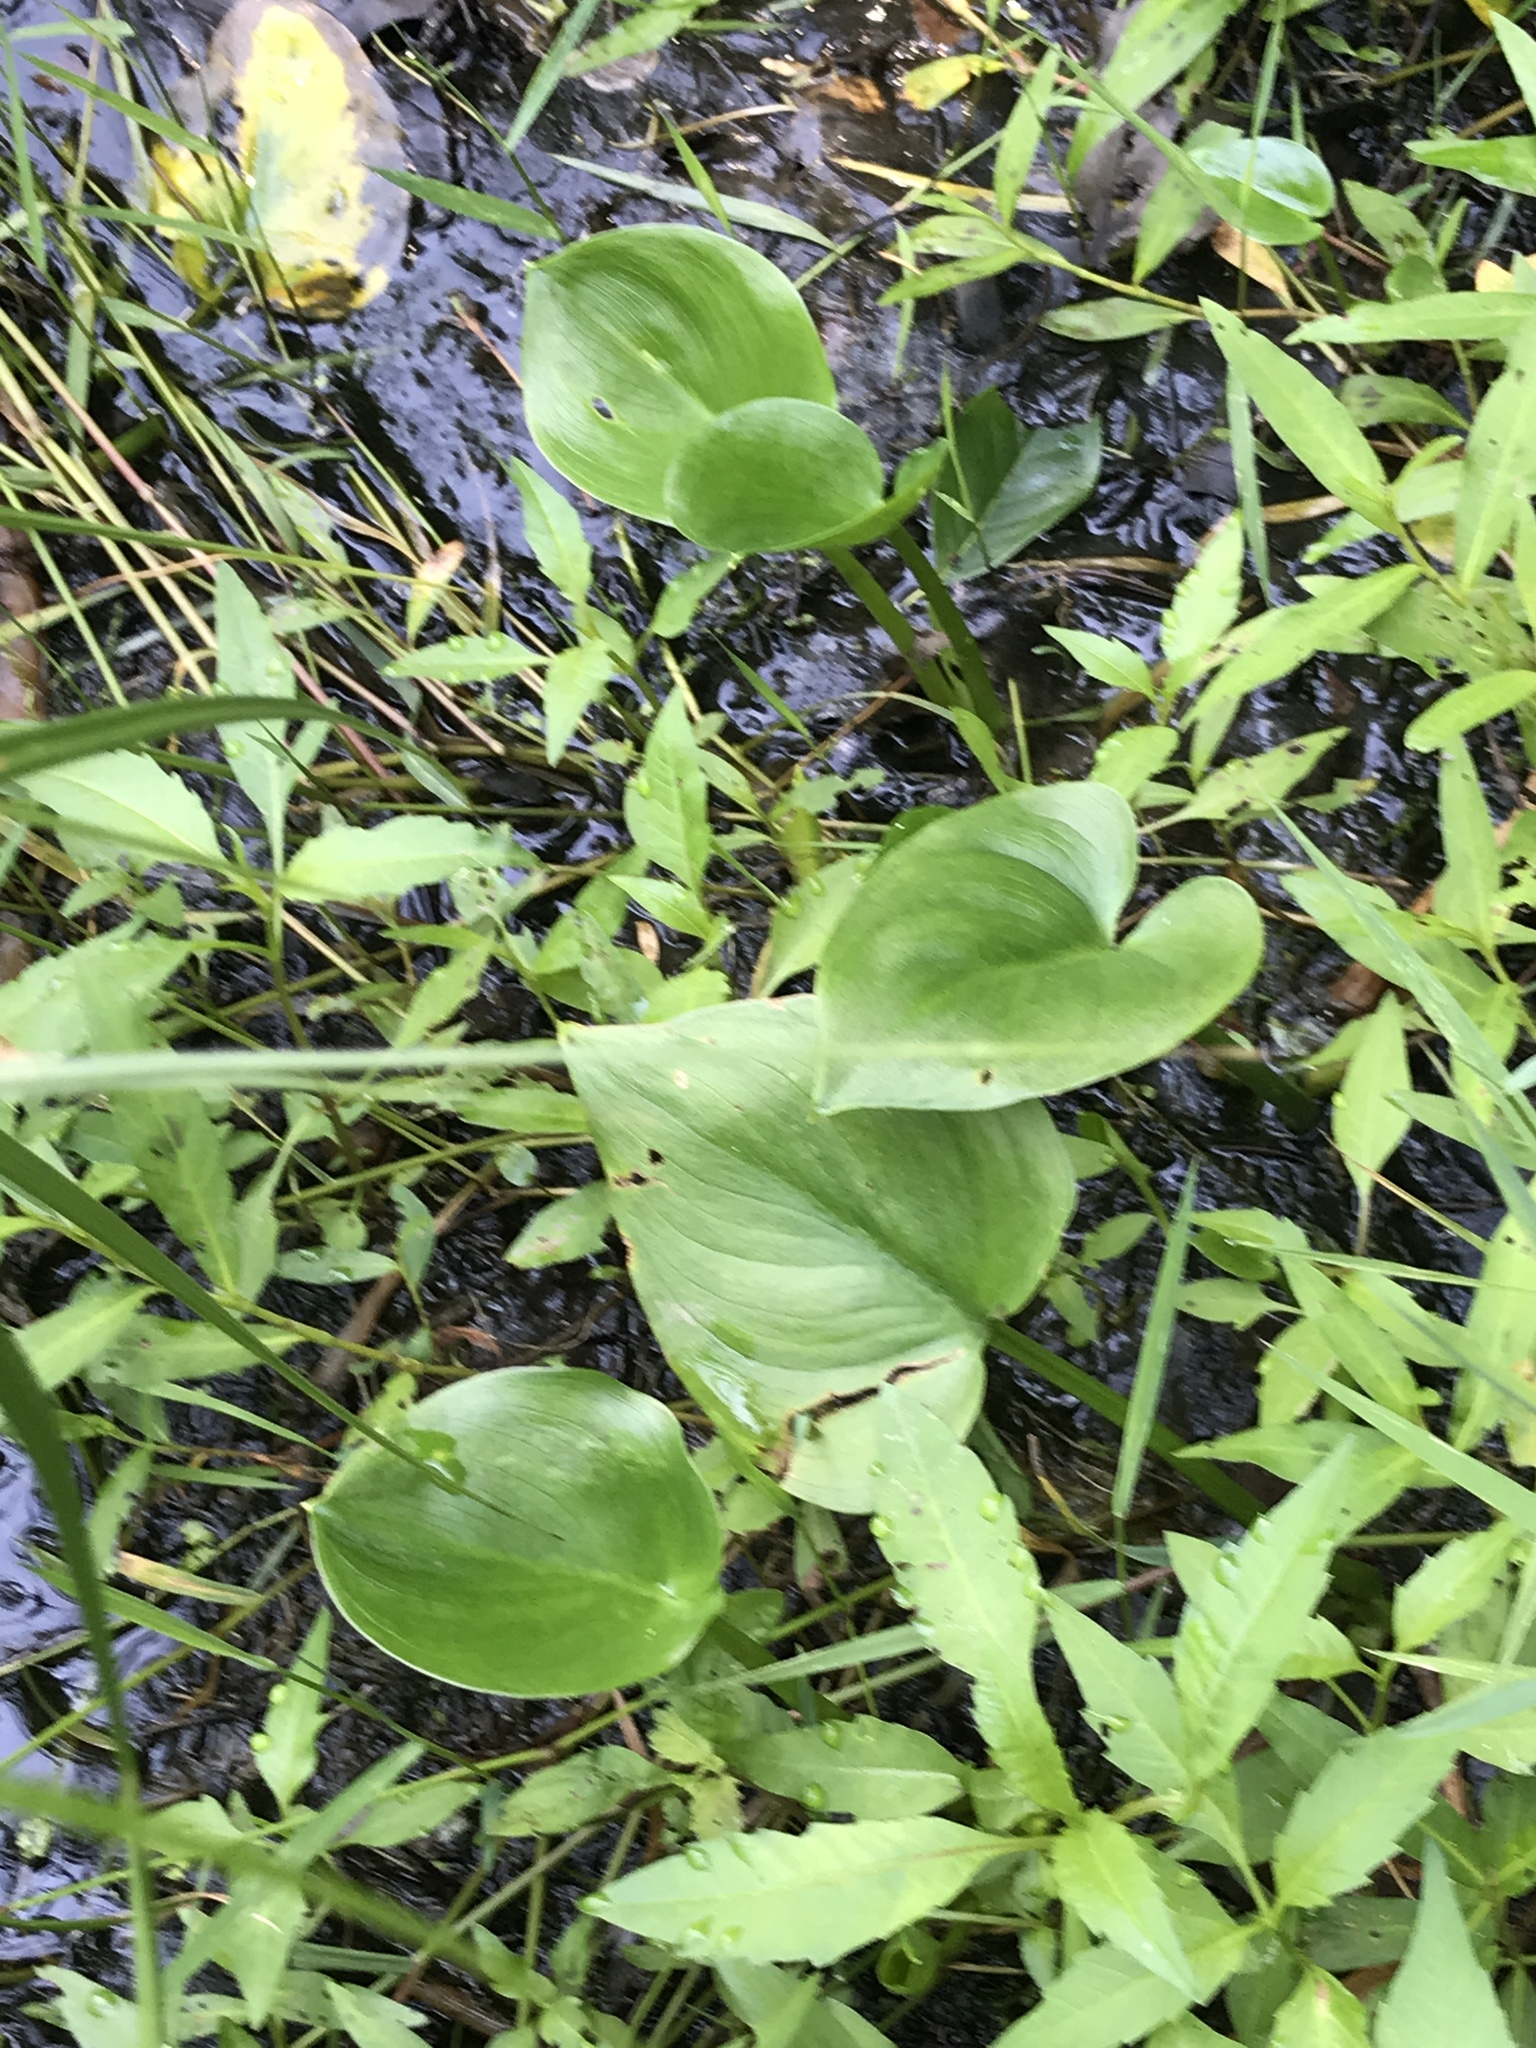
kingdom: Plantae
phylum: Tracheophyta
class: Liliopsida
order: Alismatales
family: Araceae
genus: Calla
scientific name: Calla palustris
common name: Bog arum
